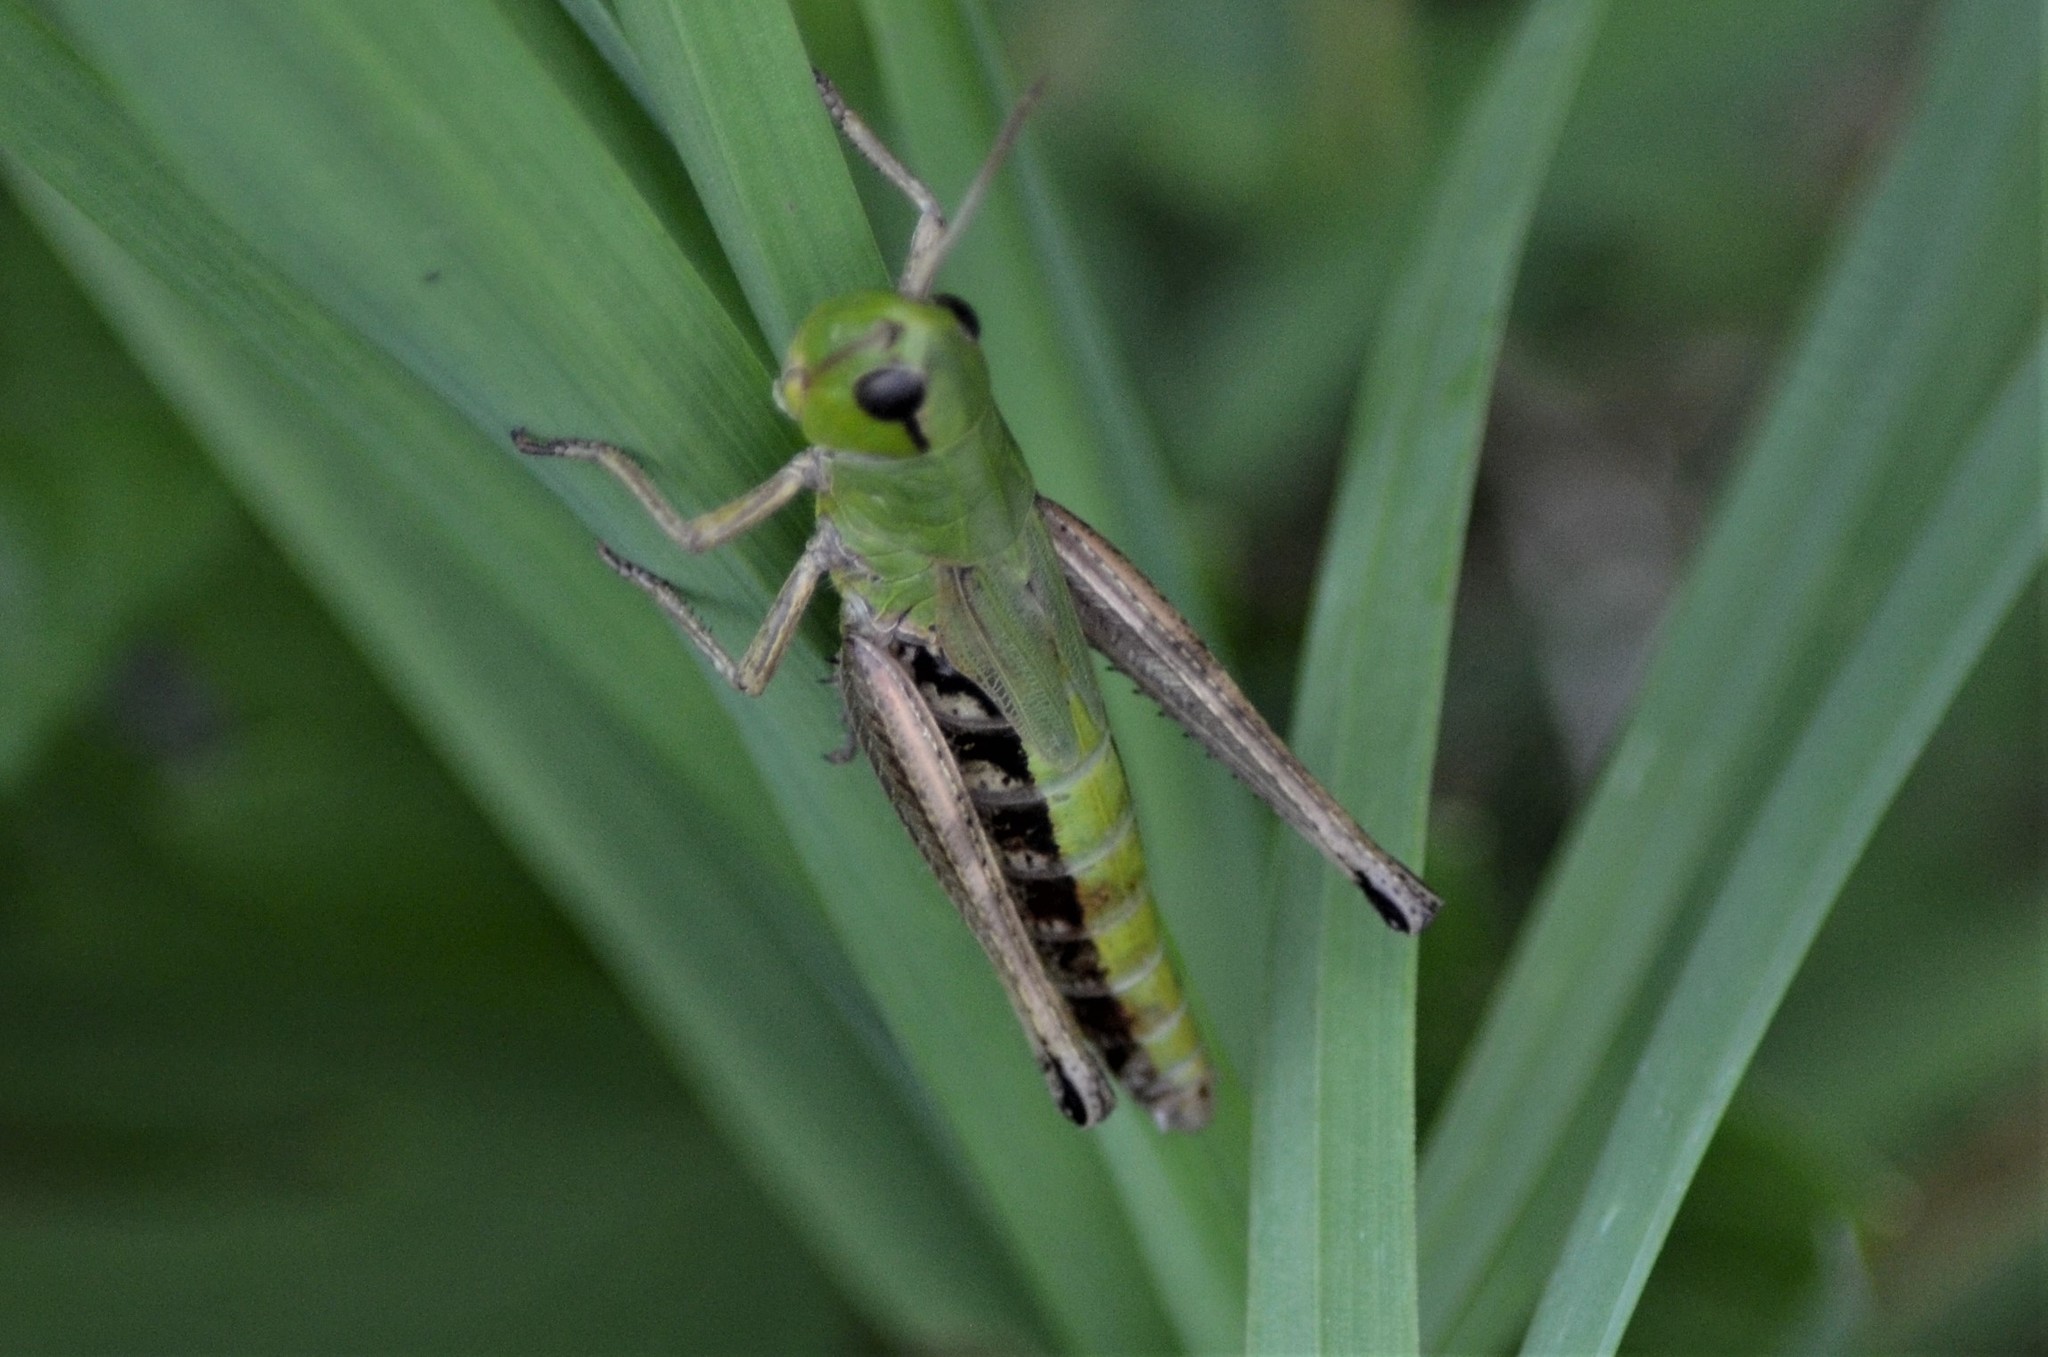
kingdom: Animalia
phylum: Arthropoda
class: Insecta
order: Orthoptera
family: Acrididae
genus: Pseudochorthippus
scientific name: Pseudochorthippus parallelus
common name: Meadow grasshopper
